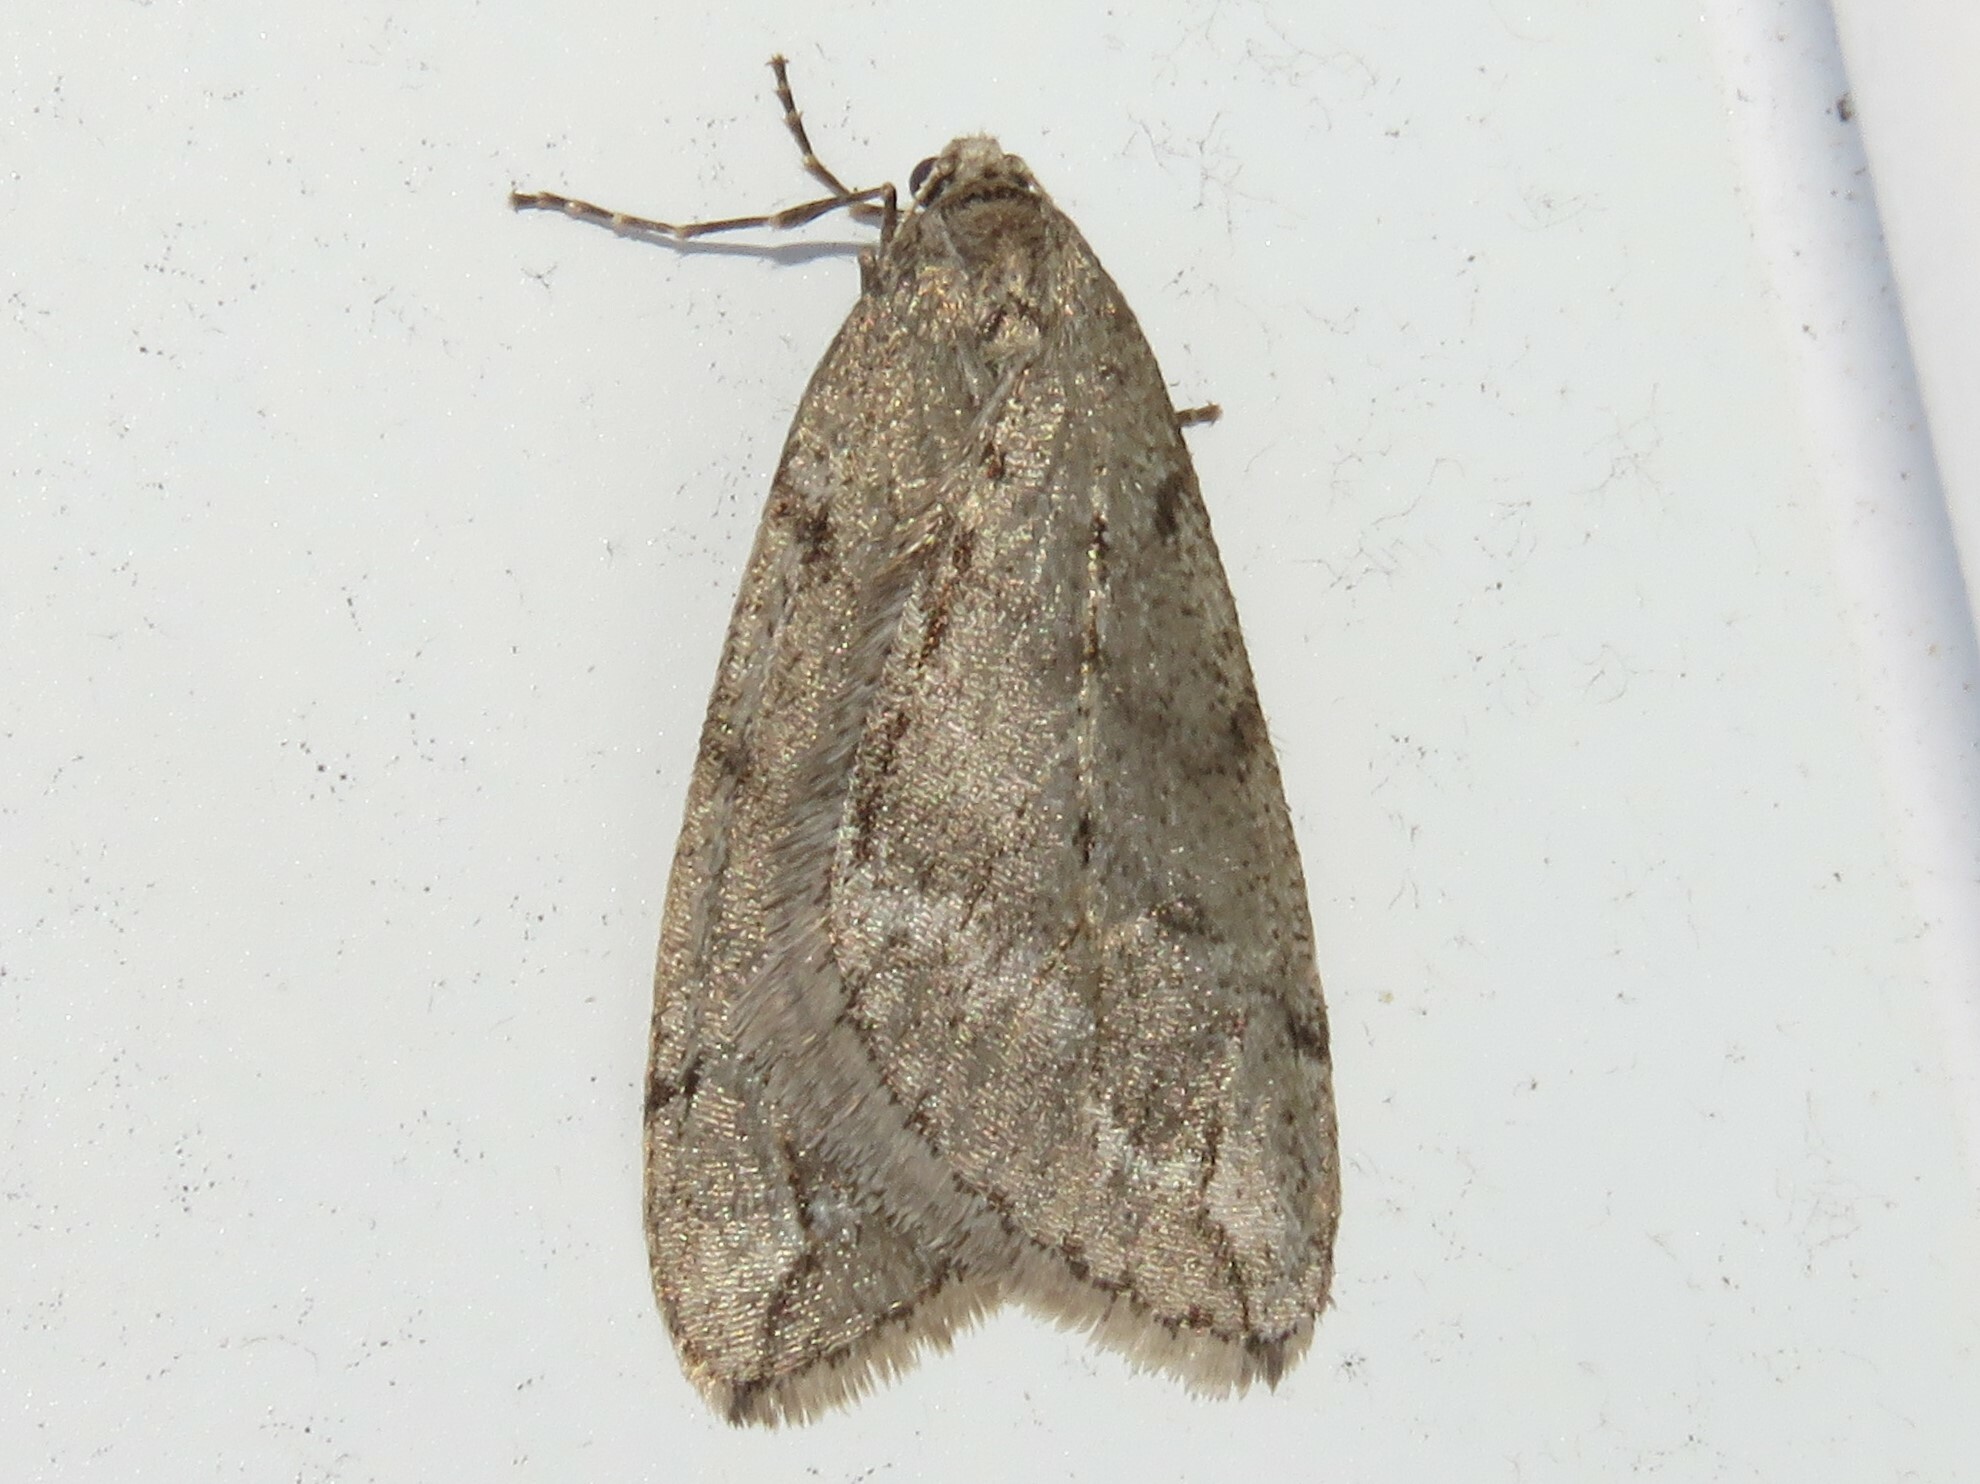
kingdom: Animalia
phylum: Arthropoda
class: Insecta
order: Lepidoptera
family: Geometridae
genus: Paleacrita
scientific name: Paleacrita vernata
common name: Spring cankerworm
